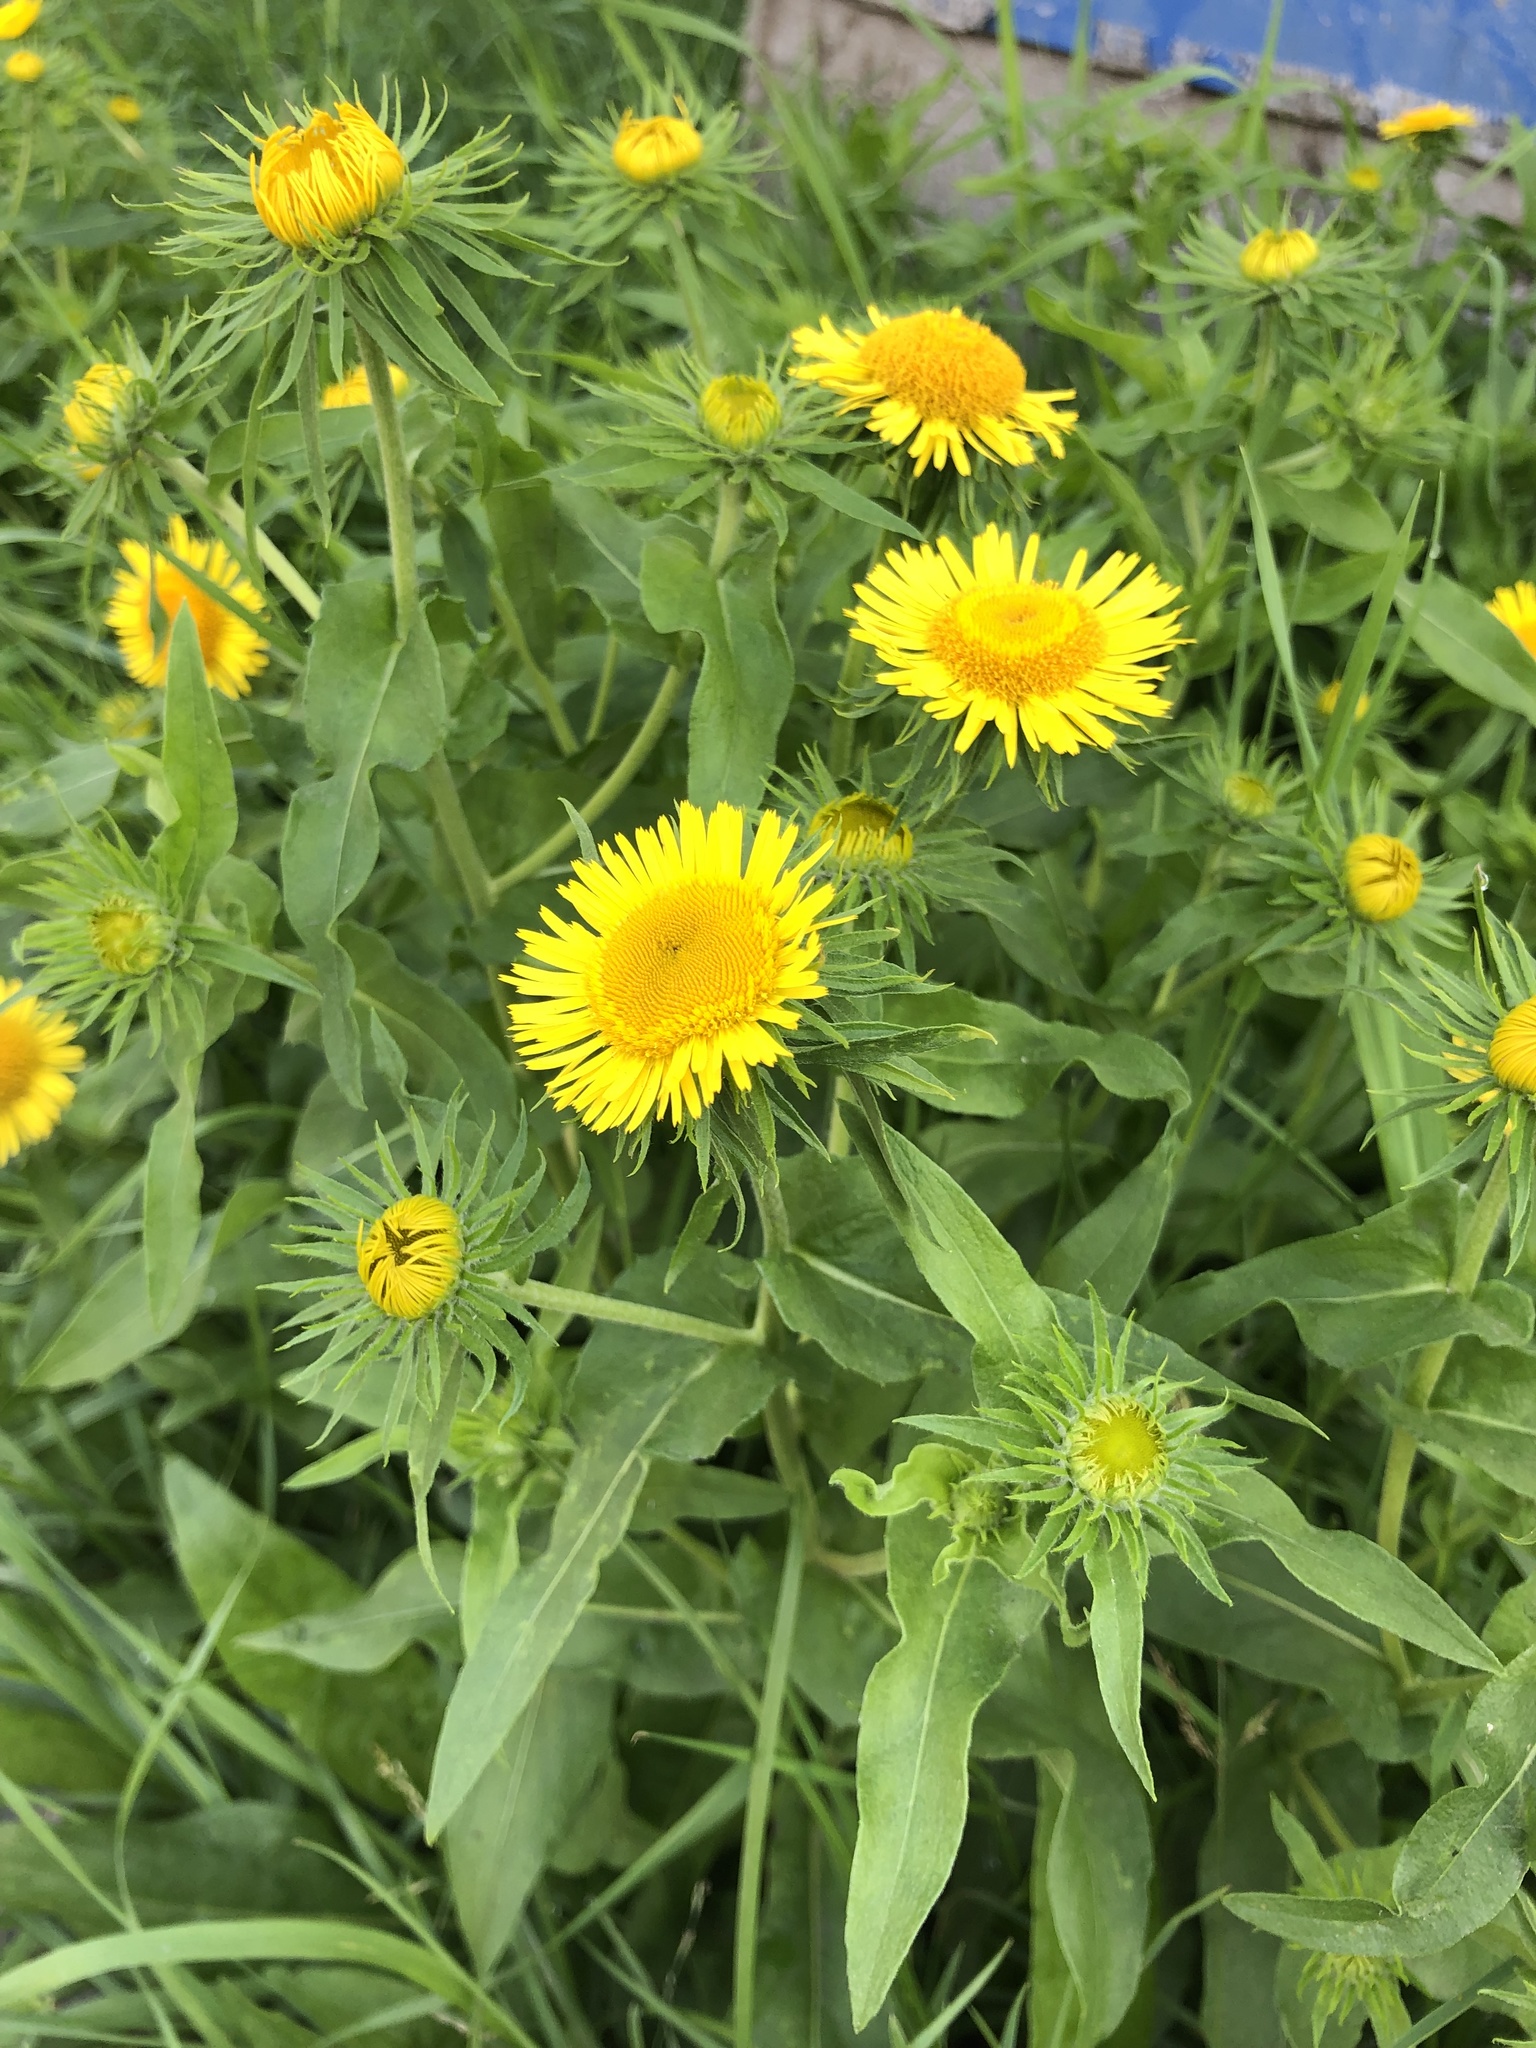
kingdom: Plantae
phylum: Tracheophyta
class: Magnoliopsida
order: Asterales
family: Asteraceae
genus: Pentanema
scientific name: Pentanema britannicum
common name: British elecampane
